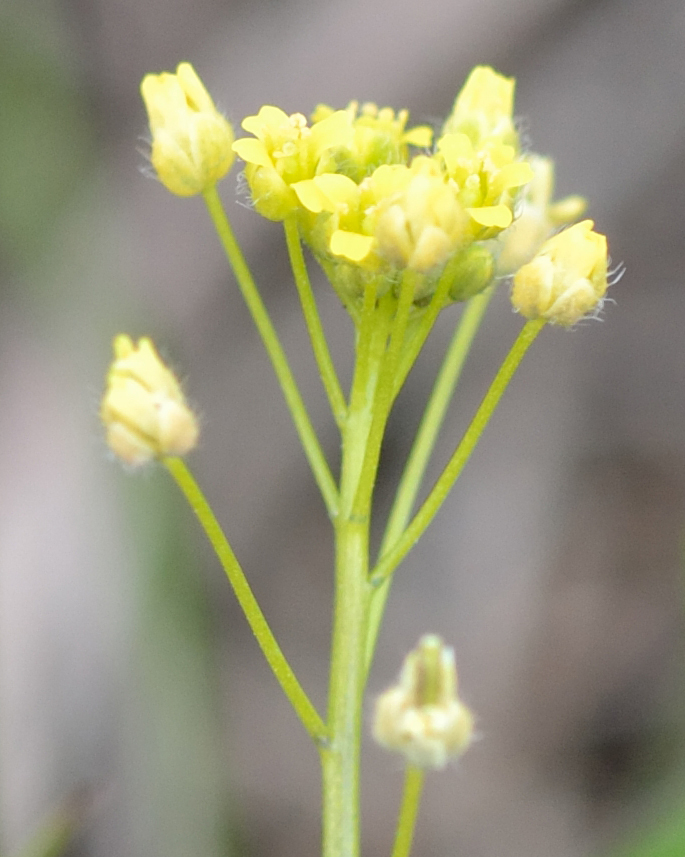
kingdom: Plantae
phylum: Tracheophyta
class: Magnoliopsida
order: Brassicales
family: Brassicaceae
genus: Draba
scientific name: Draba nemorosa
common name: Wood whitlow-grass
